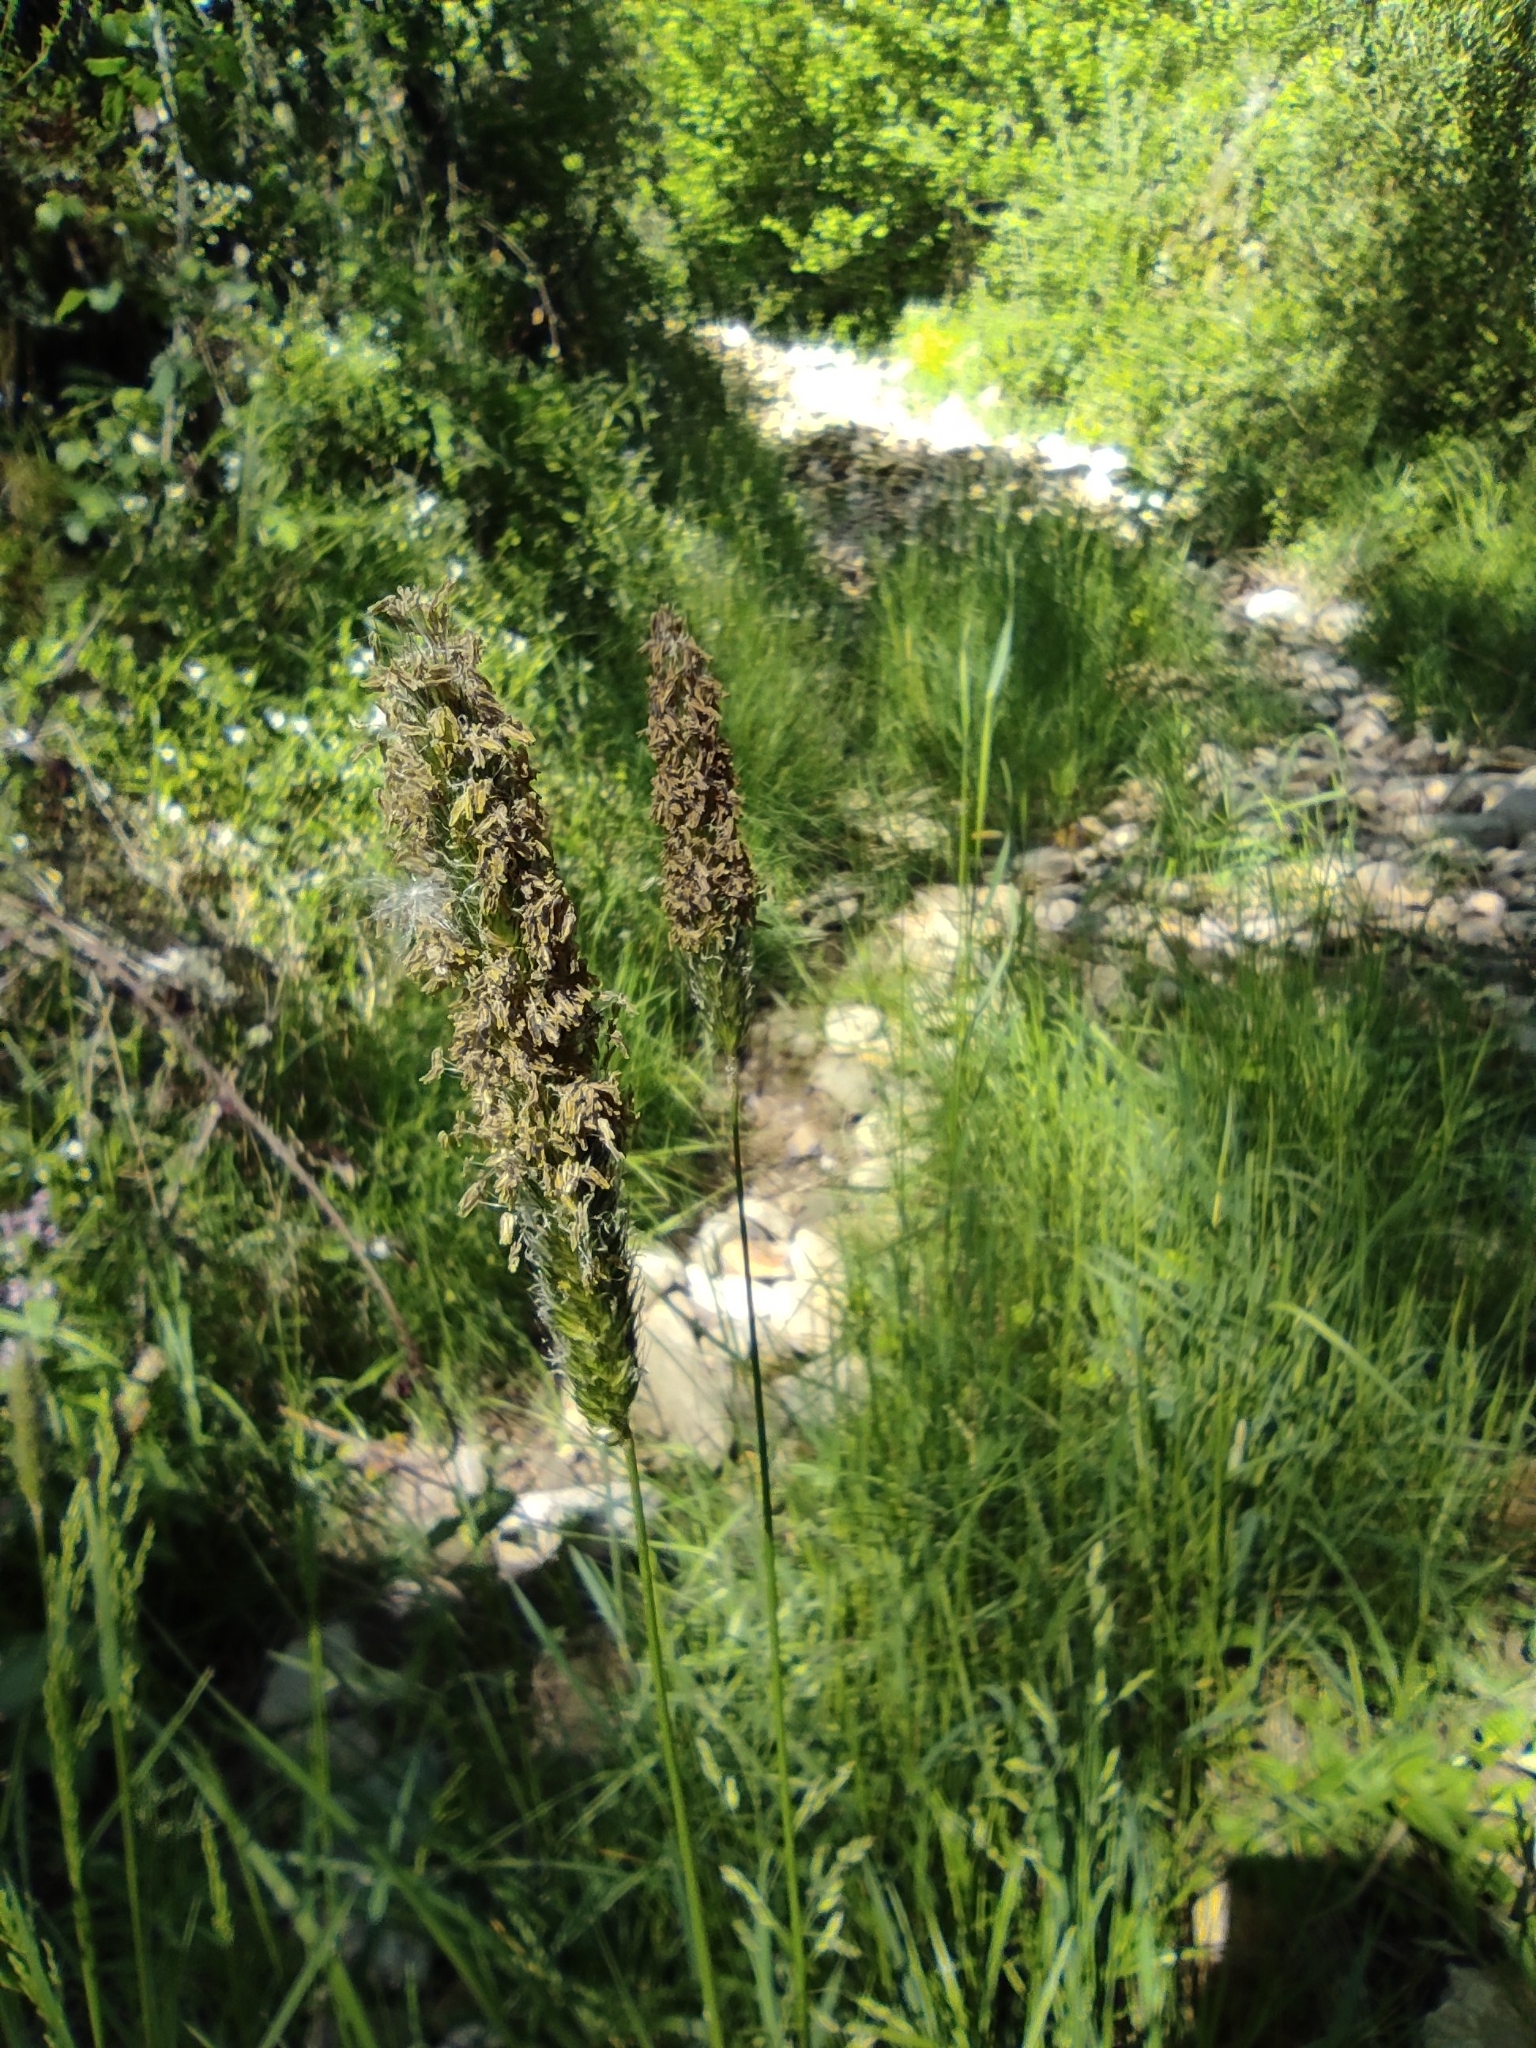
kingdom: Plantae
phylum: Tracheophyta
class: Liliopsida
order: Poales
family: Poaceae
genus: Alopecurus
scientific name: Alopecurus pratensis
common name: Meadow foxtail
